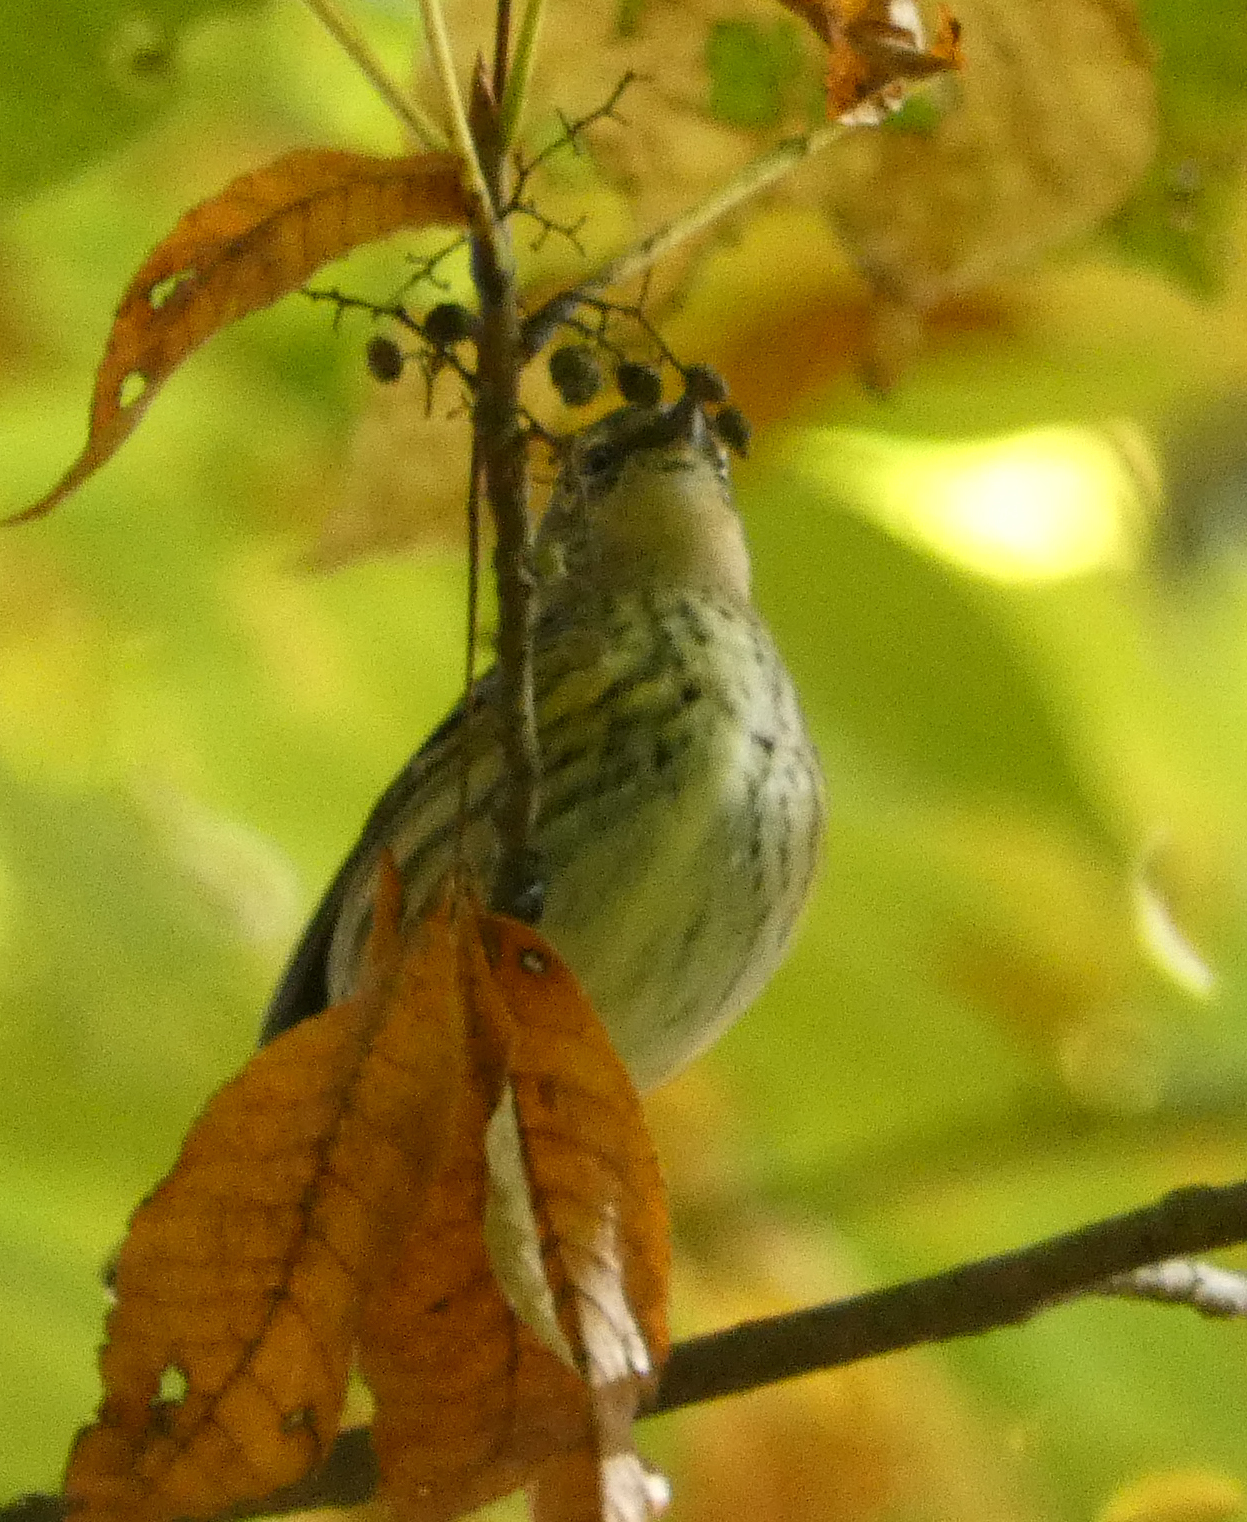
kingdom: Animalia
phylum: Chordata
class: Aves
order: Passeriformes
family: Parulidae
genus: Setophaga
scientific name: Setophaga coronata
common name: Myrtle warbler
